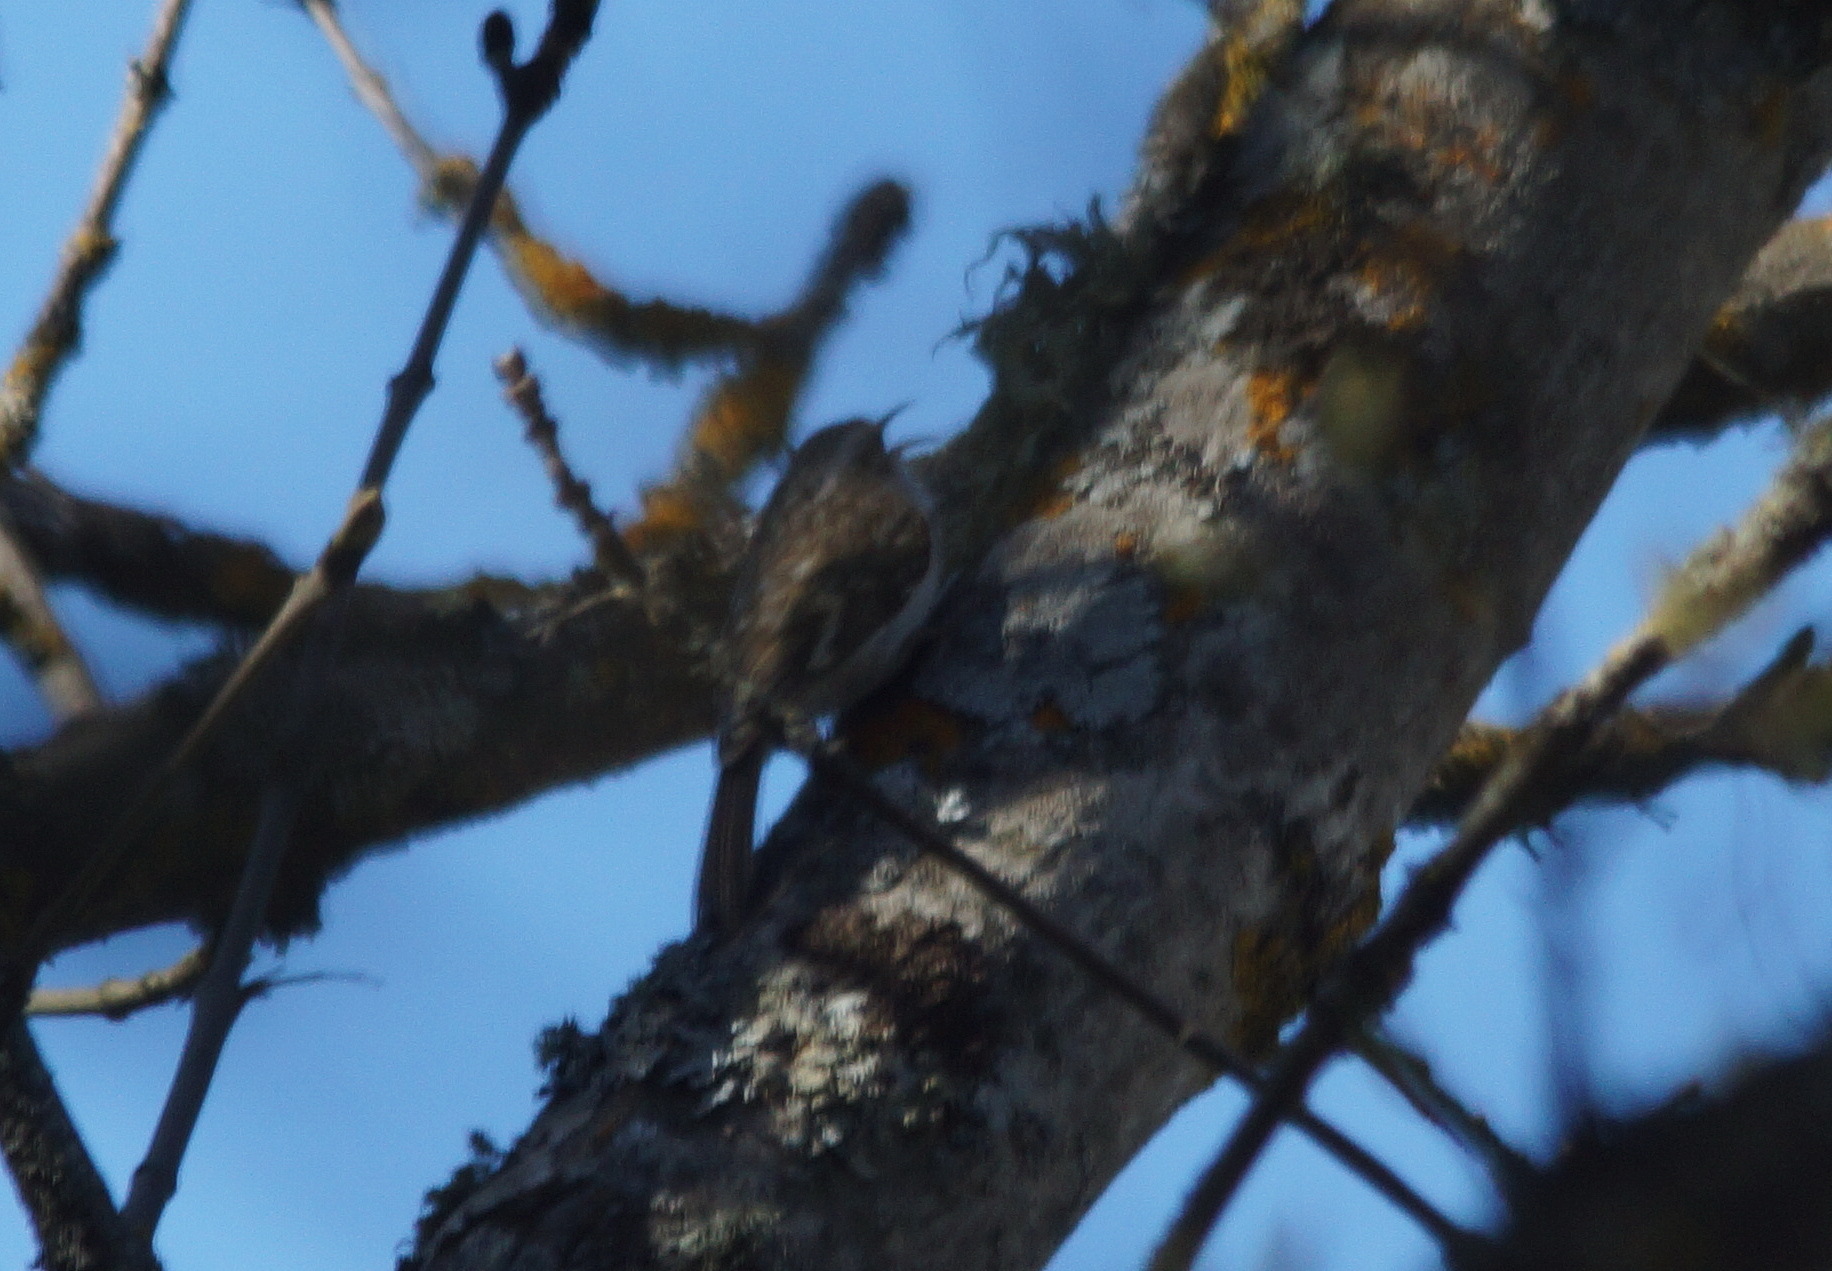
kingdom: Animalia
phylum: Chordata
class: Aves
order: Passeriformes
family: Certhiidae
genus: Certhia
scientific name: Certhia familiaris
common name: Eurasian treecreeper
